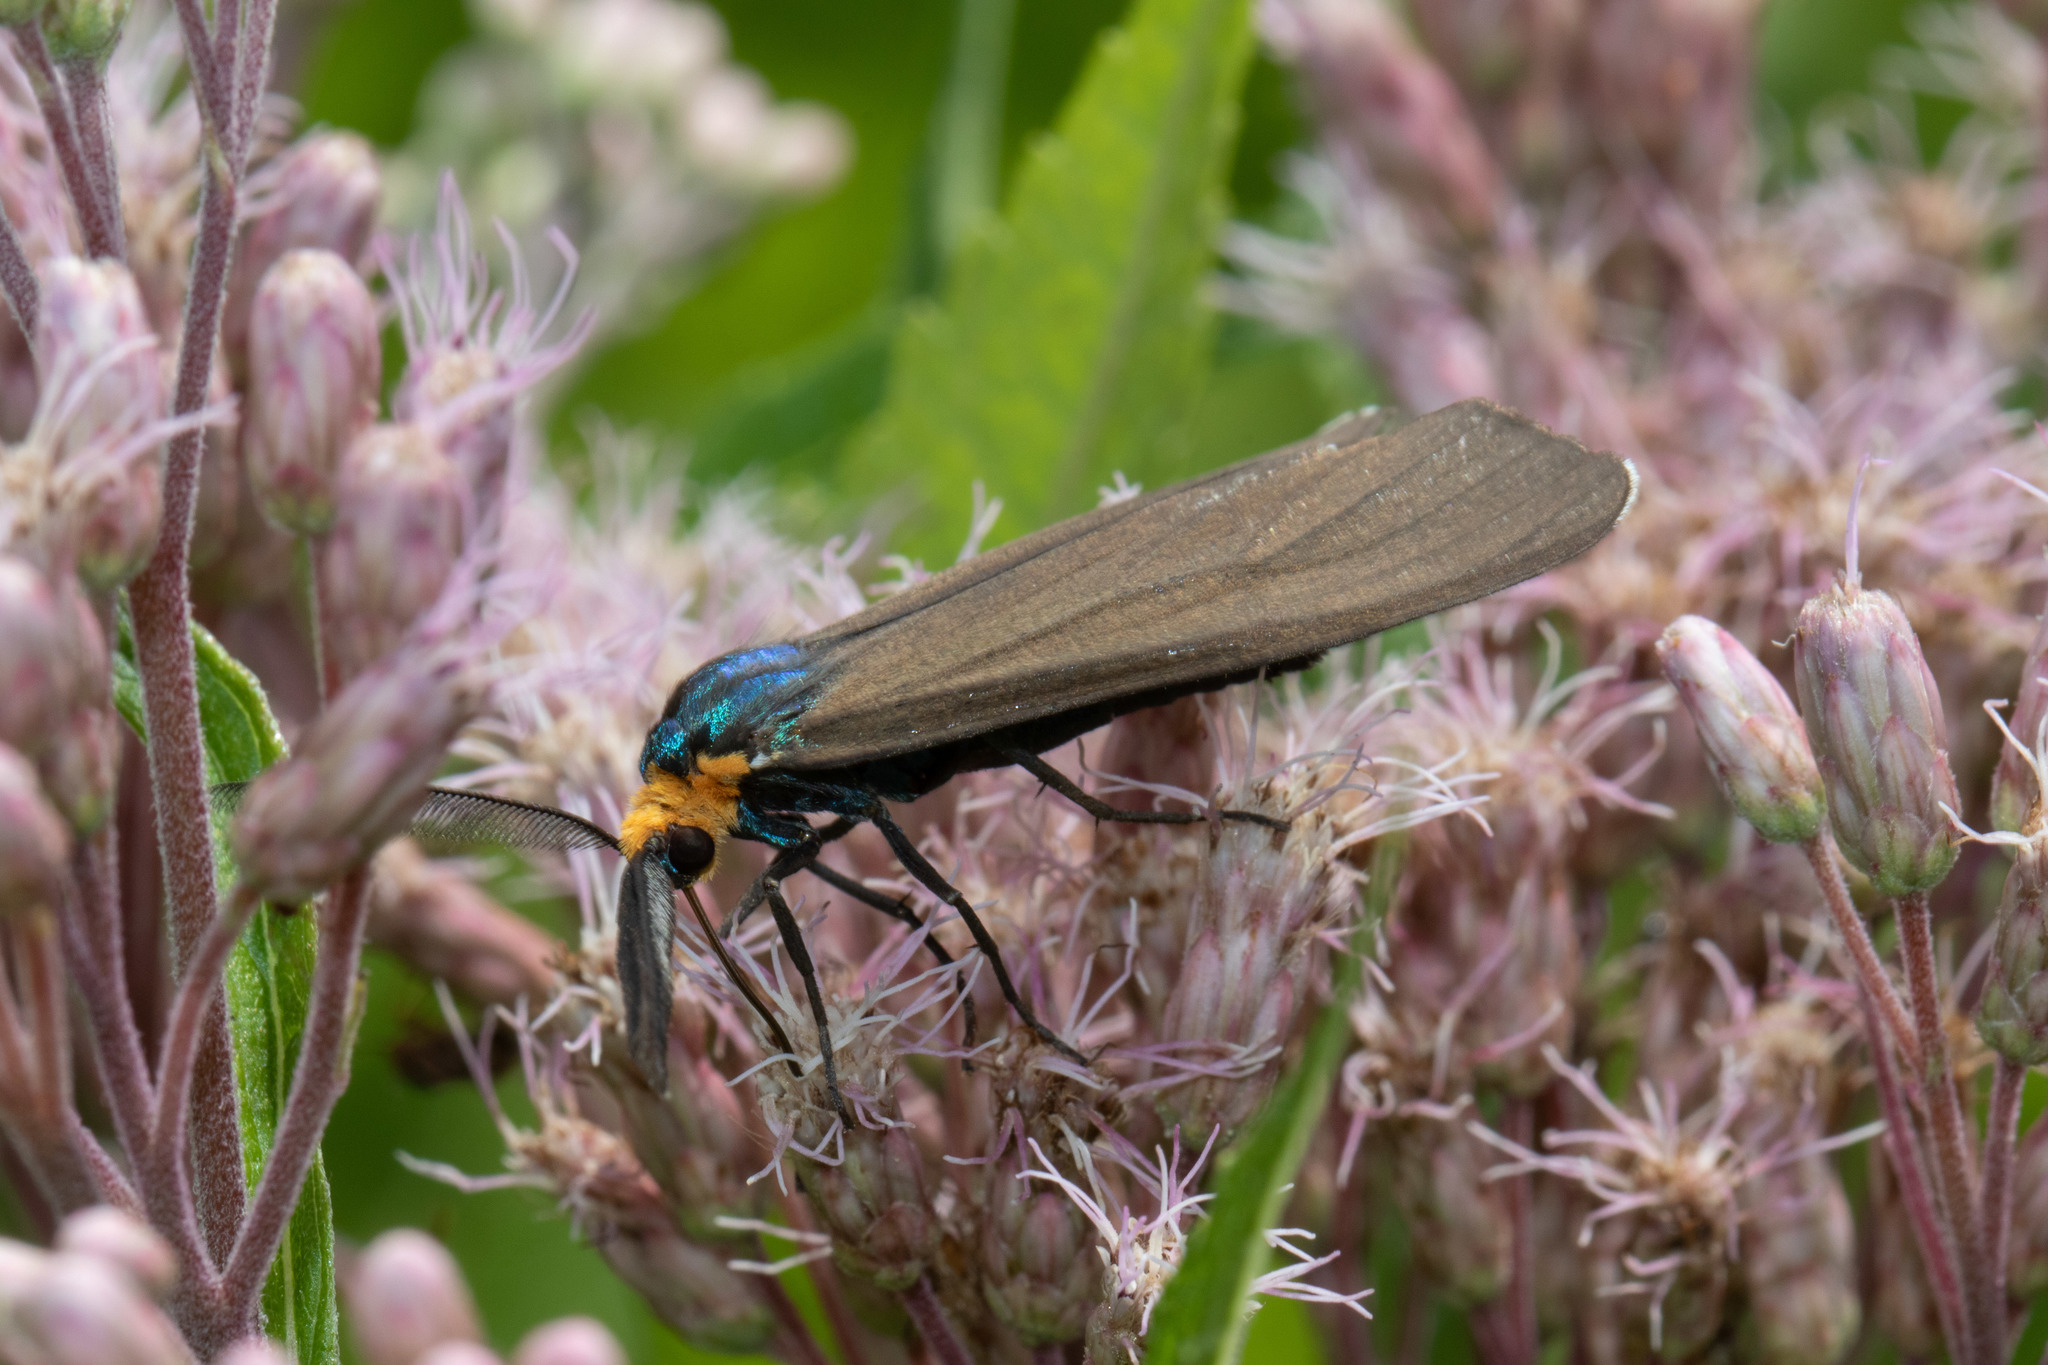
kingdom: Animalia
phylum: Arthropoda
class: Insecta
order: Lepidoptera
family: Erebidae
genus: Ctenucha
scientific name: Ctenucha virginica
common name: Virginia ctenucha moth
